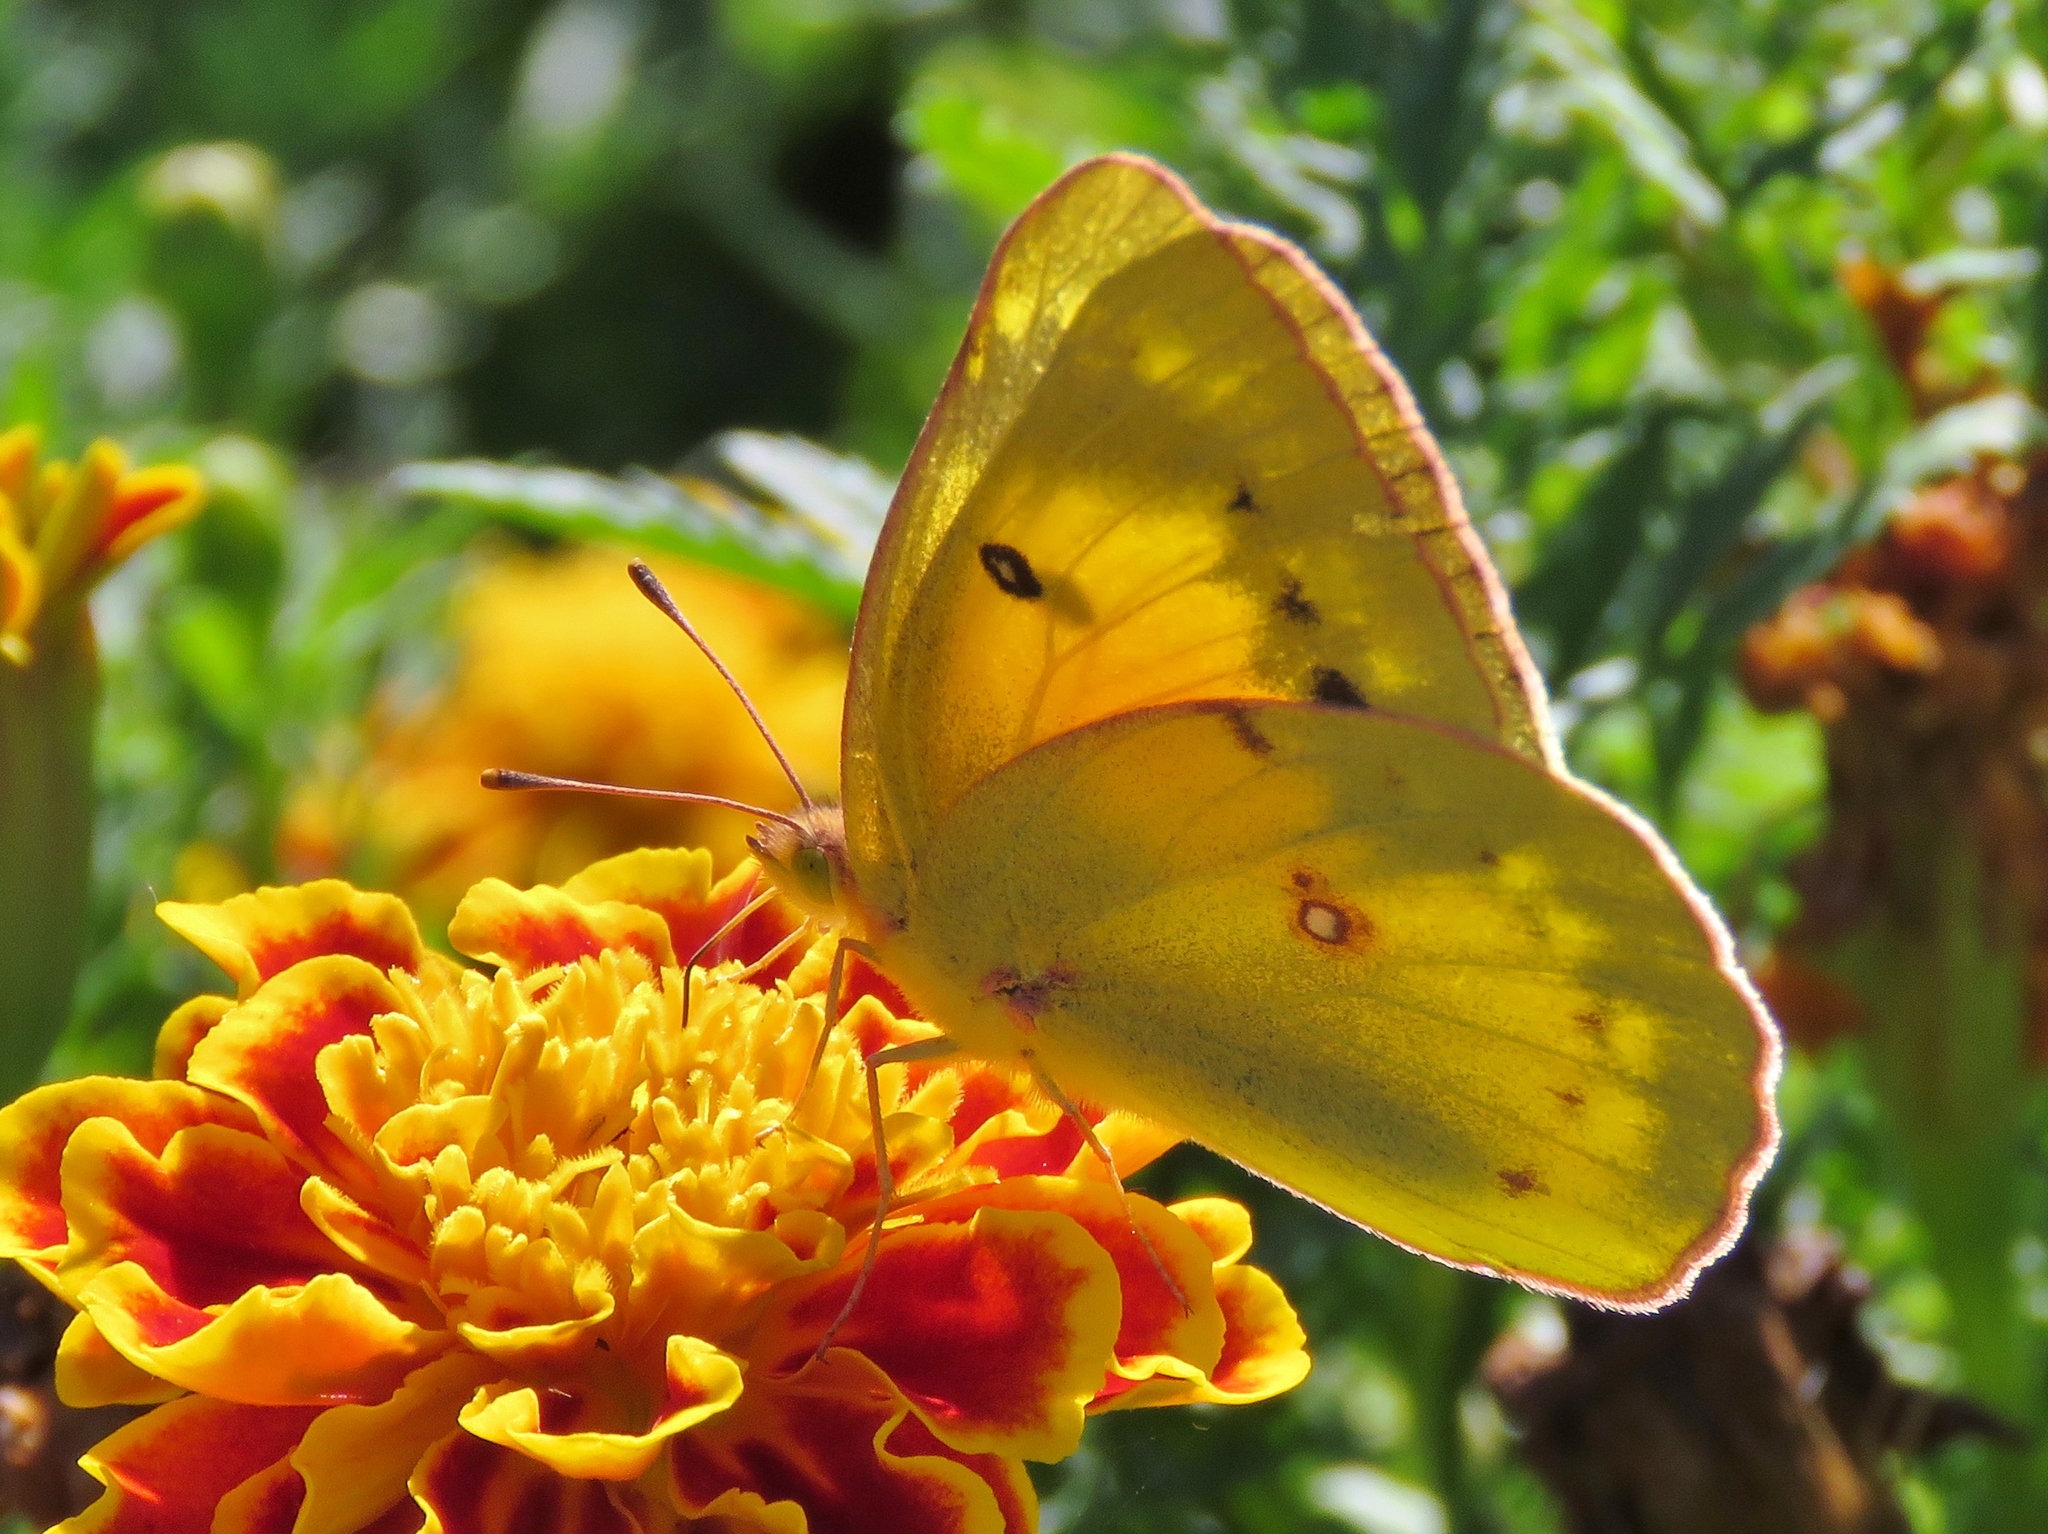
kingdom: Animalia
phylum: Arthropoda
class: Insecta
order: Lepidoptera
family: Pieridae
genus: Colias
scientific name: Colias eurytheme
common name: Alfalfa butterfly
